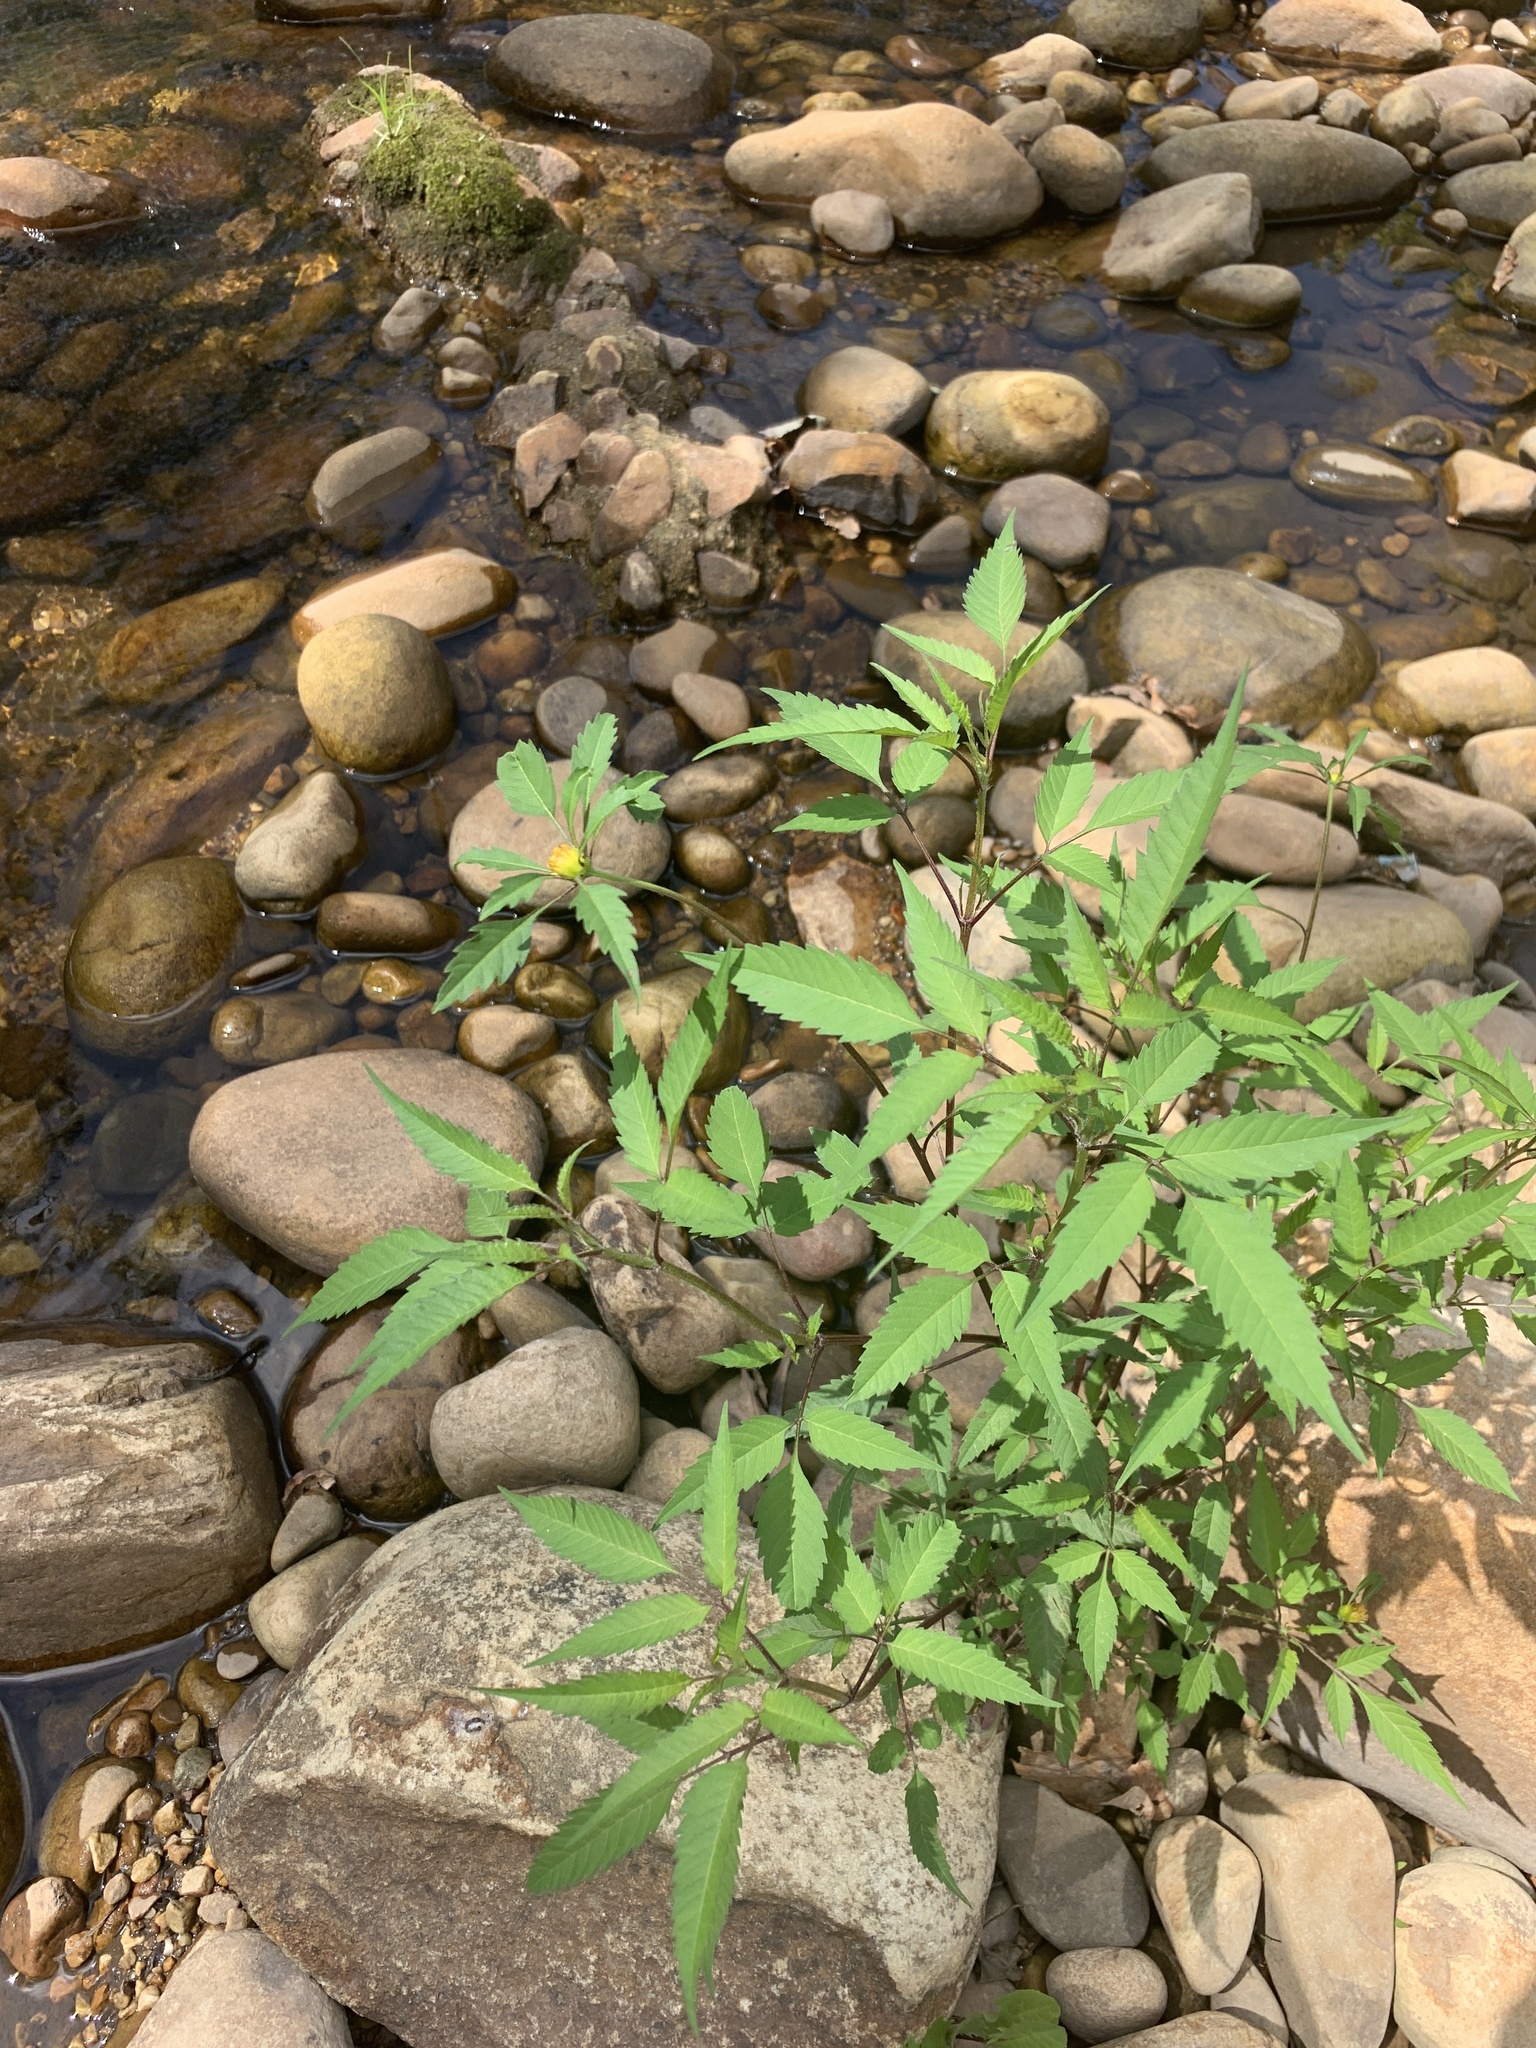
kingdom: Plantae
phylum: Tracheophyta
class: Magnoliopsida
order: Asterales
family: Asteraceae
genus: Bidens
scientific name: Bidens frondosa
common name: Beggarticks
